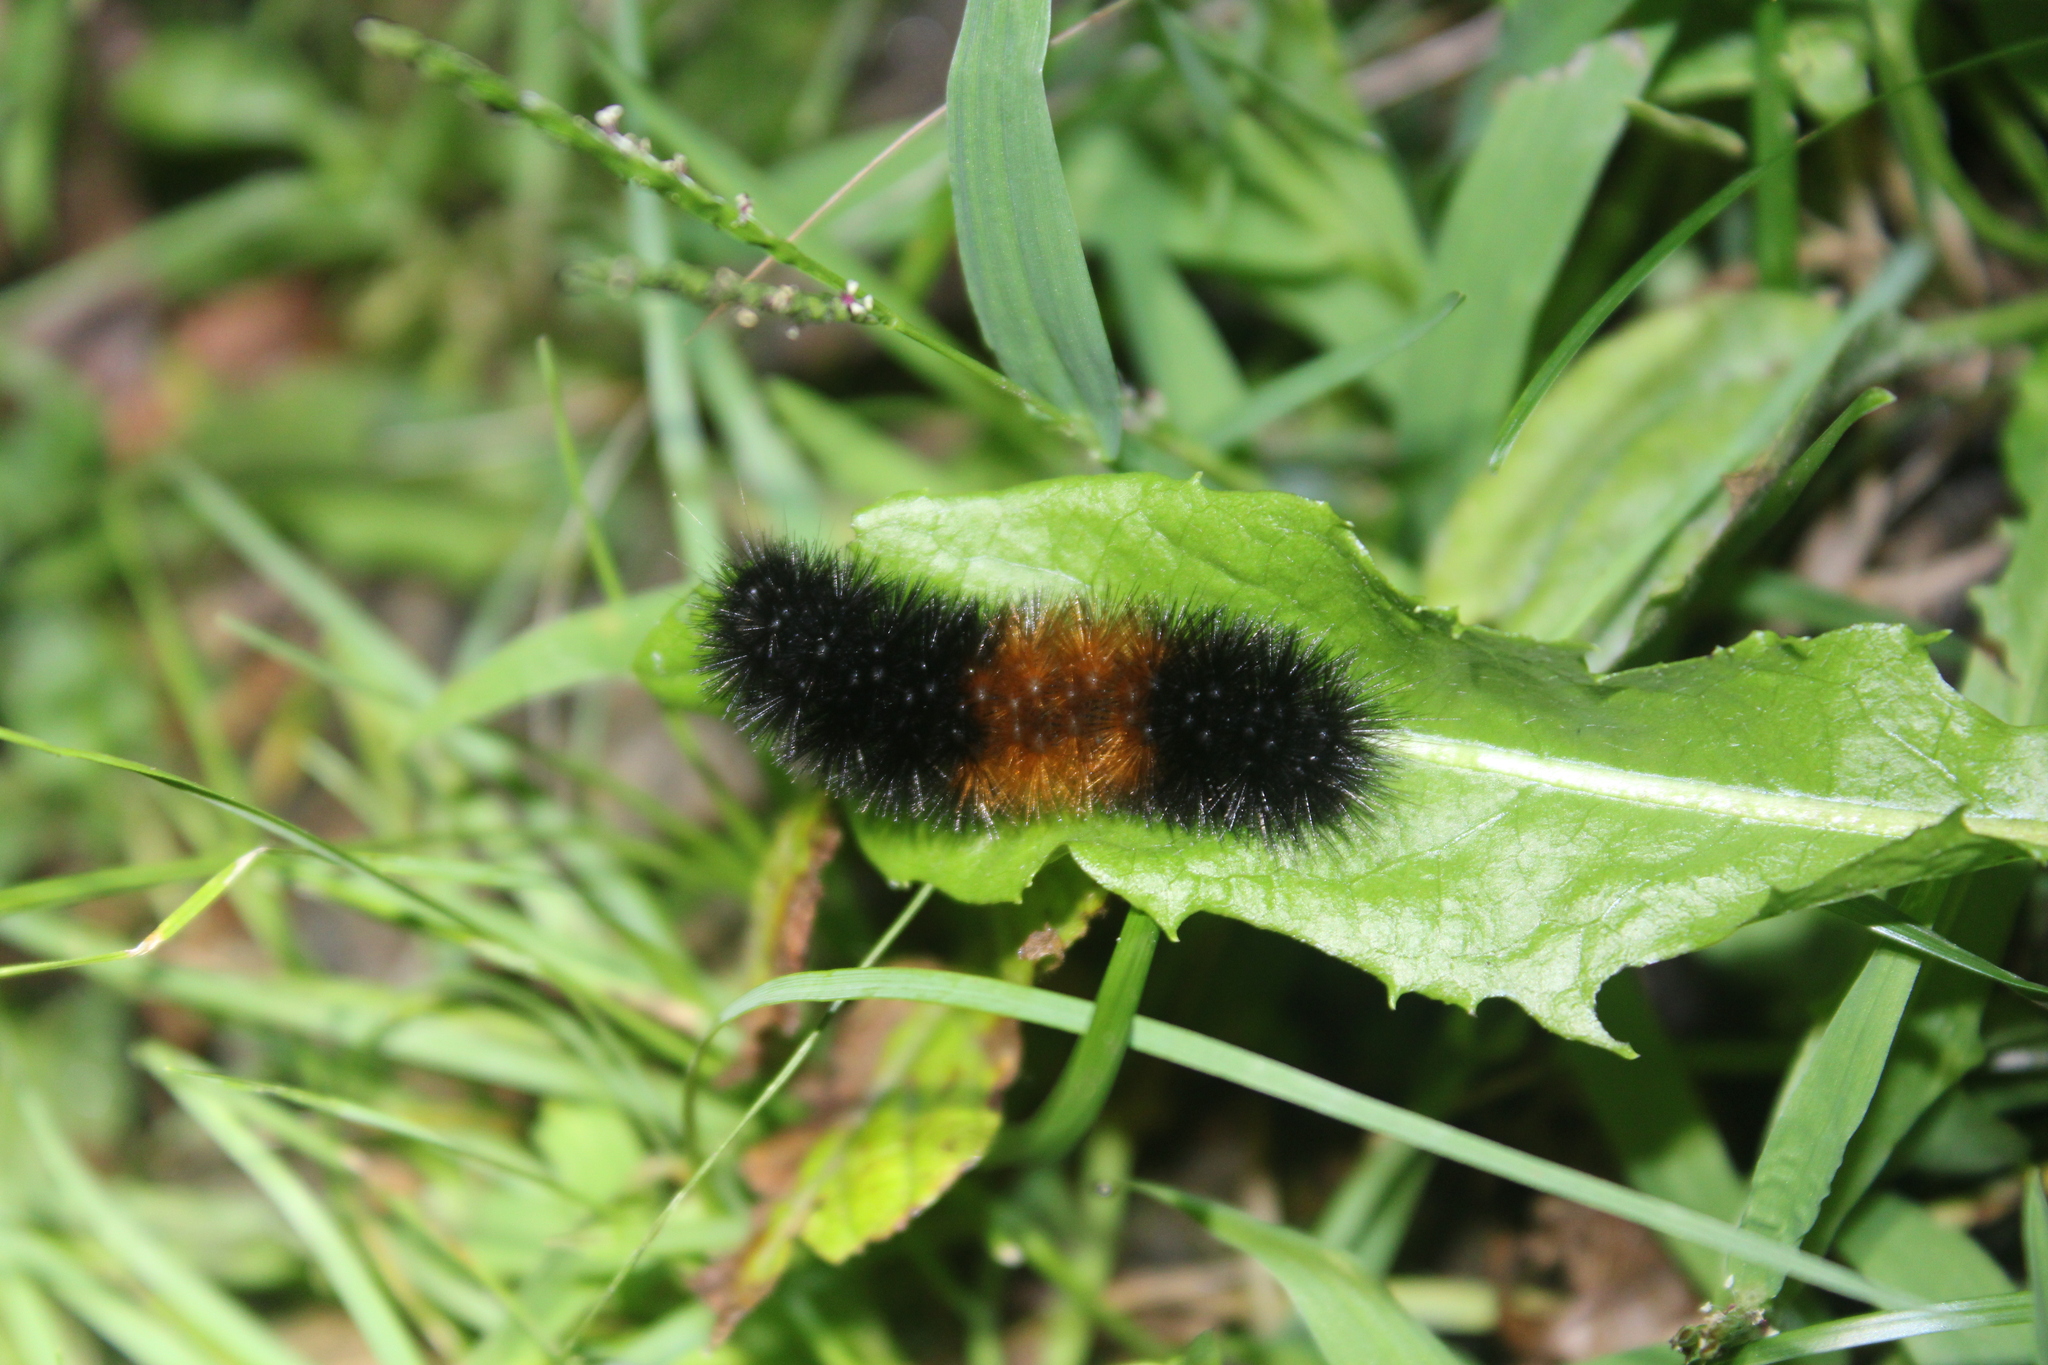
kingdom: Animalia
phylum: Arthropoda
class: Insecta
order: Lepidoptera
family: Erebidae
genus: Pyrrharctia
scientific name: Pyrrharctia isabella
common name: Isabella tiger moth
